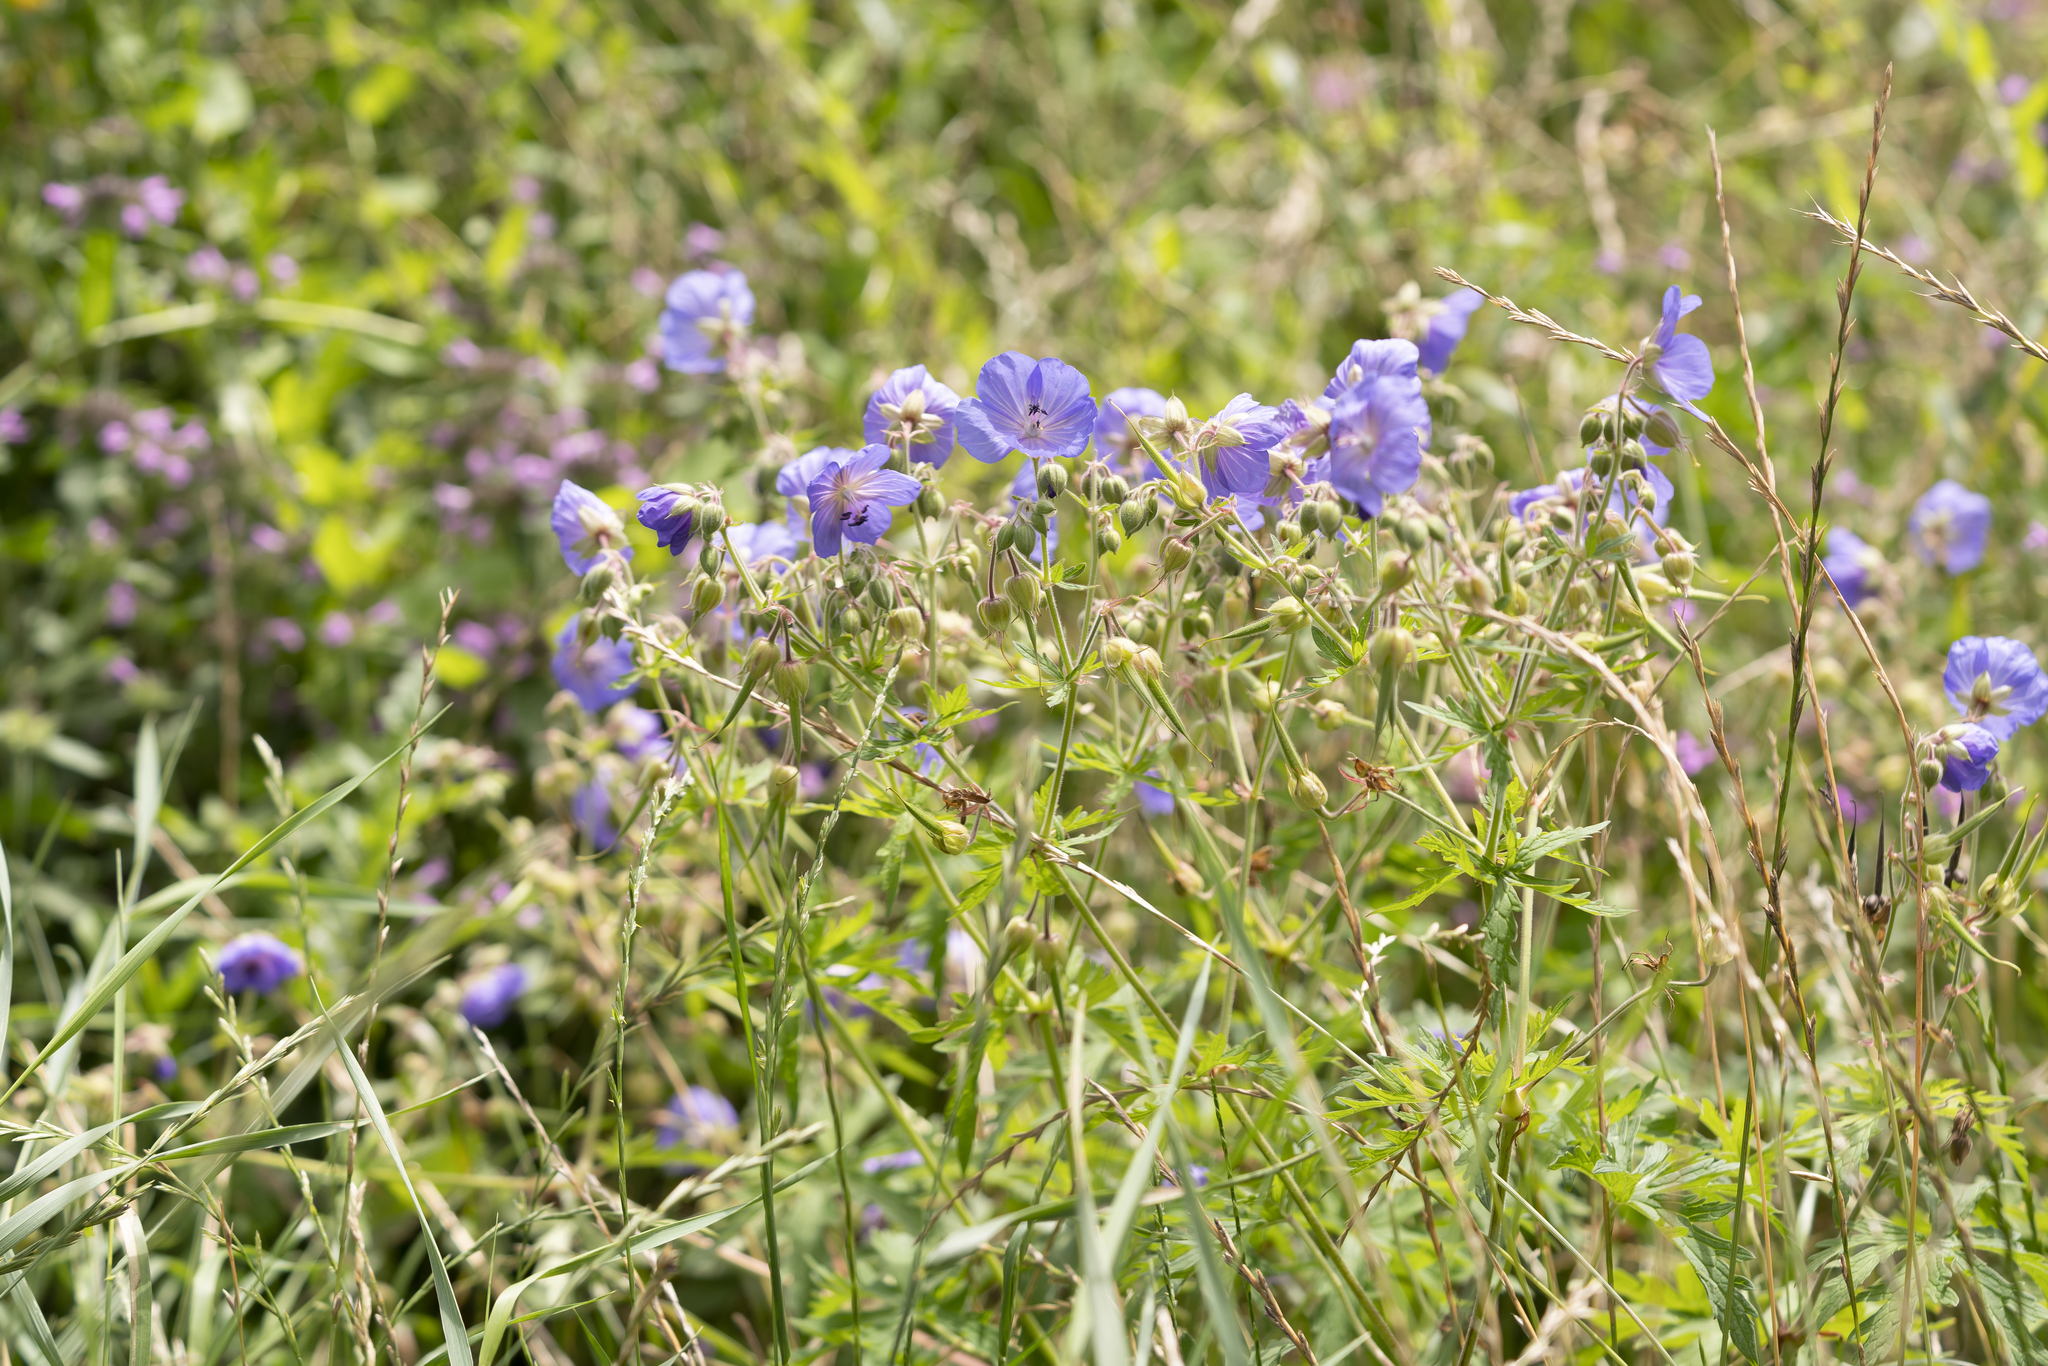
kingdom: Plantae
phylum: Tracheophyta
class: Magnoliopsida
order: Geraniales
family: Geraniaceae
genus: Geranium
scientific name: Geranium pratense
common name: Meadow crane's-bill
